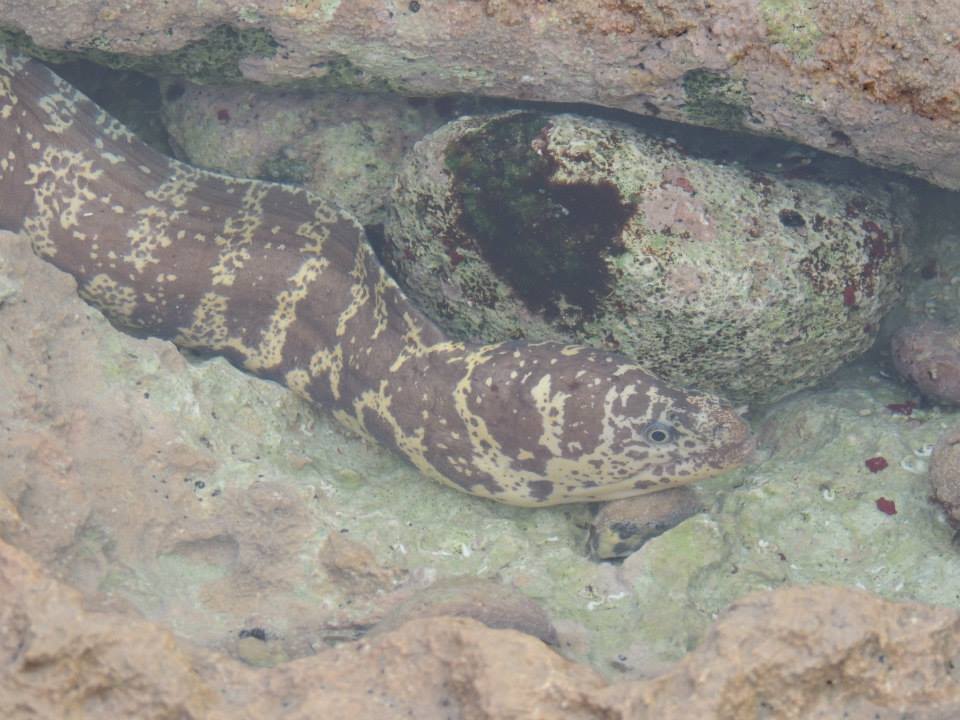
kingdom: Animalia
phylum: Chordata
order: Anguilliformes
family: Muraenidae
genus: Echidna
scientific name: Echidna catenata
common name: Chain moray
